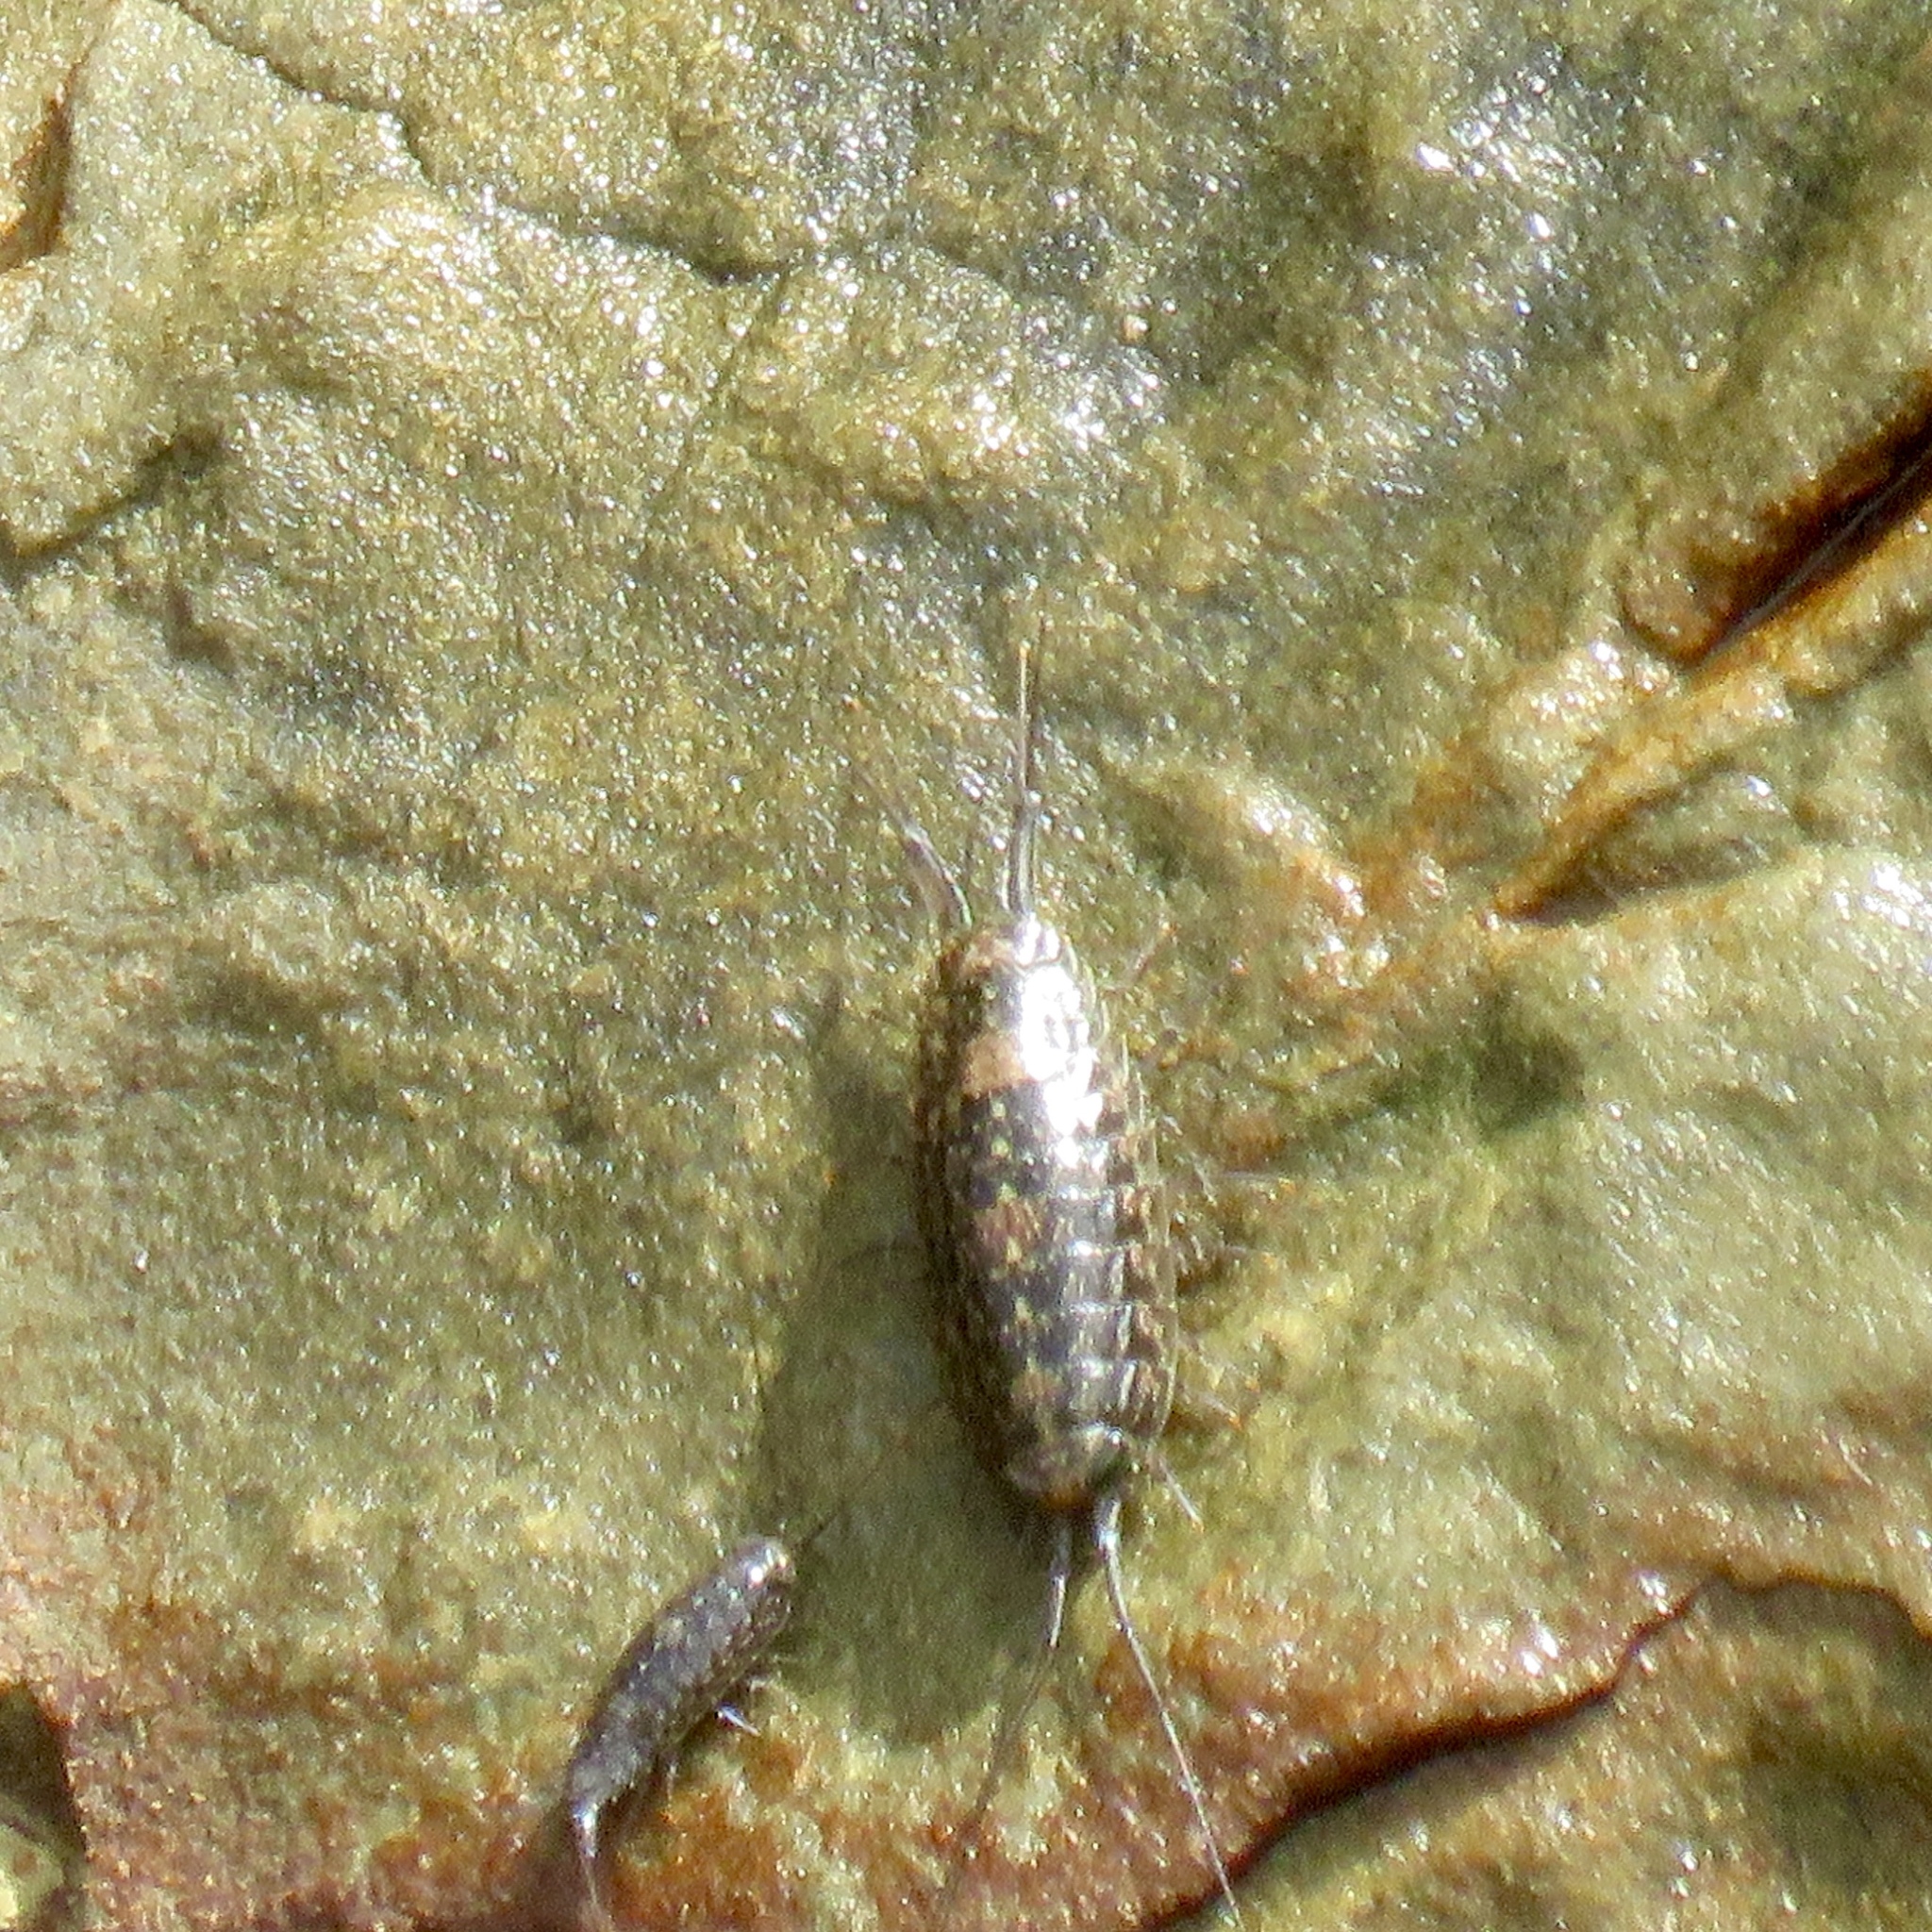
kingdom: Animalia
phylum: Arthropoda
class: Malacostraca
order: Isopoda
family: Ligiidae
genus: Ligia
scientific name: Ligia exotica
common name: Wharf roach
